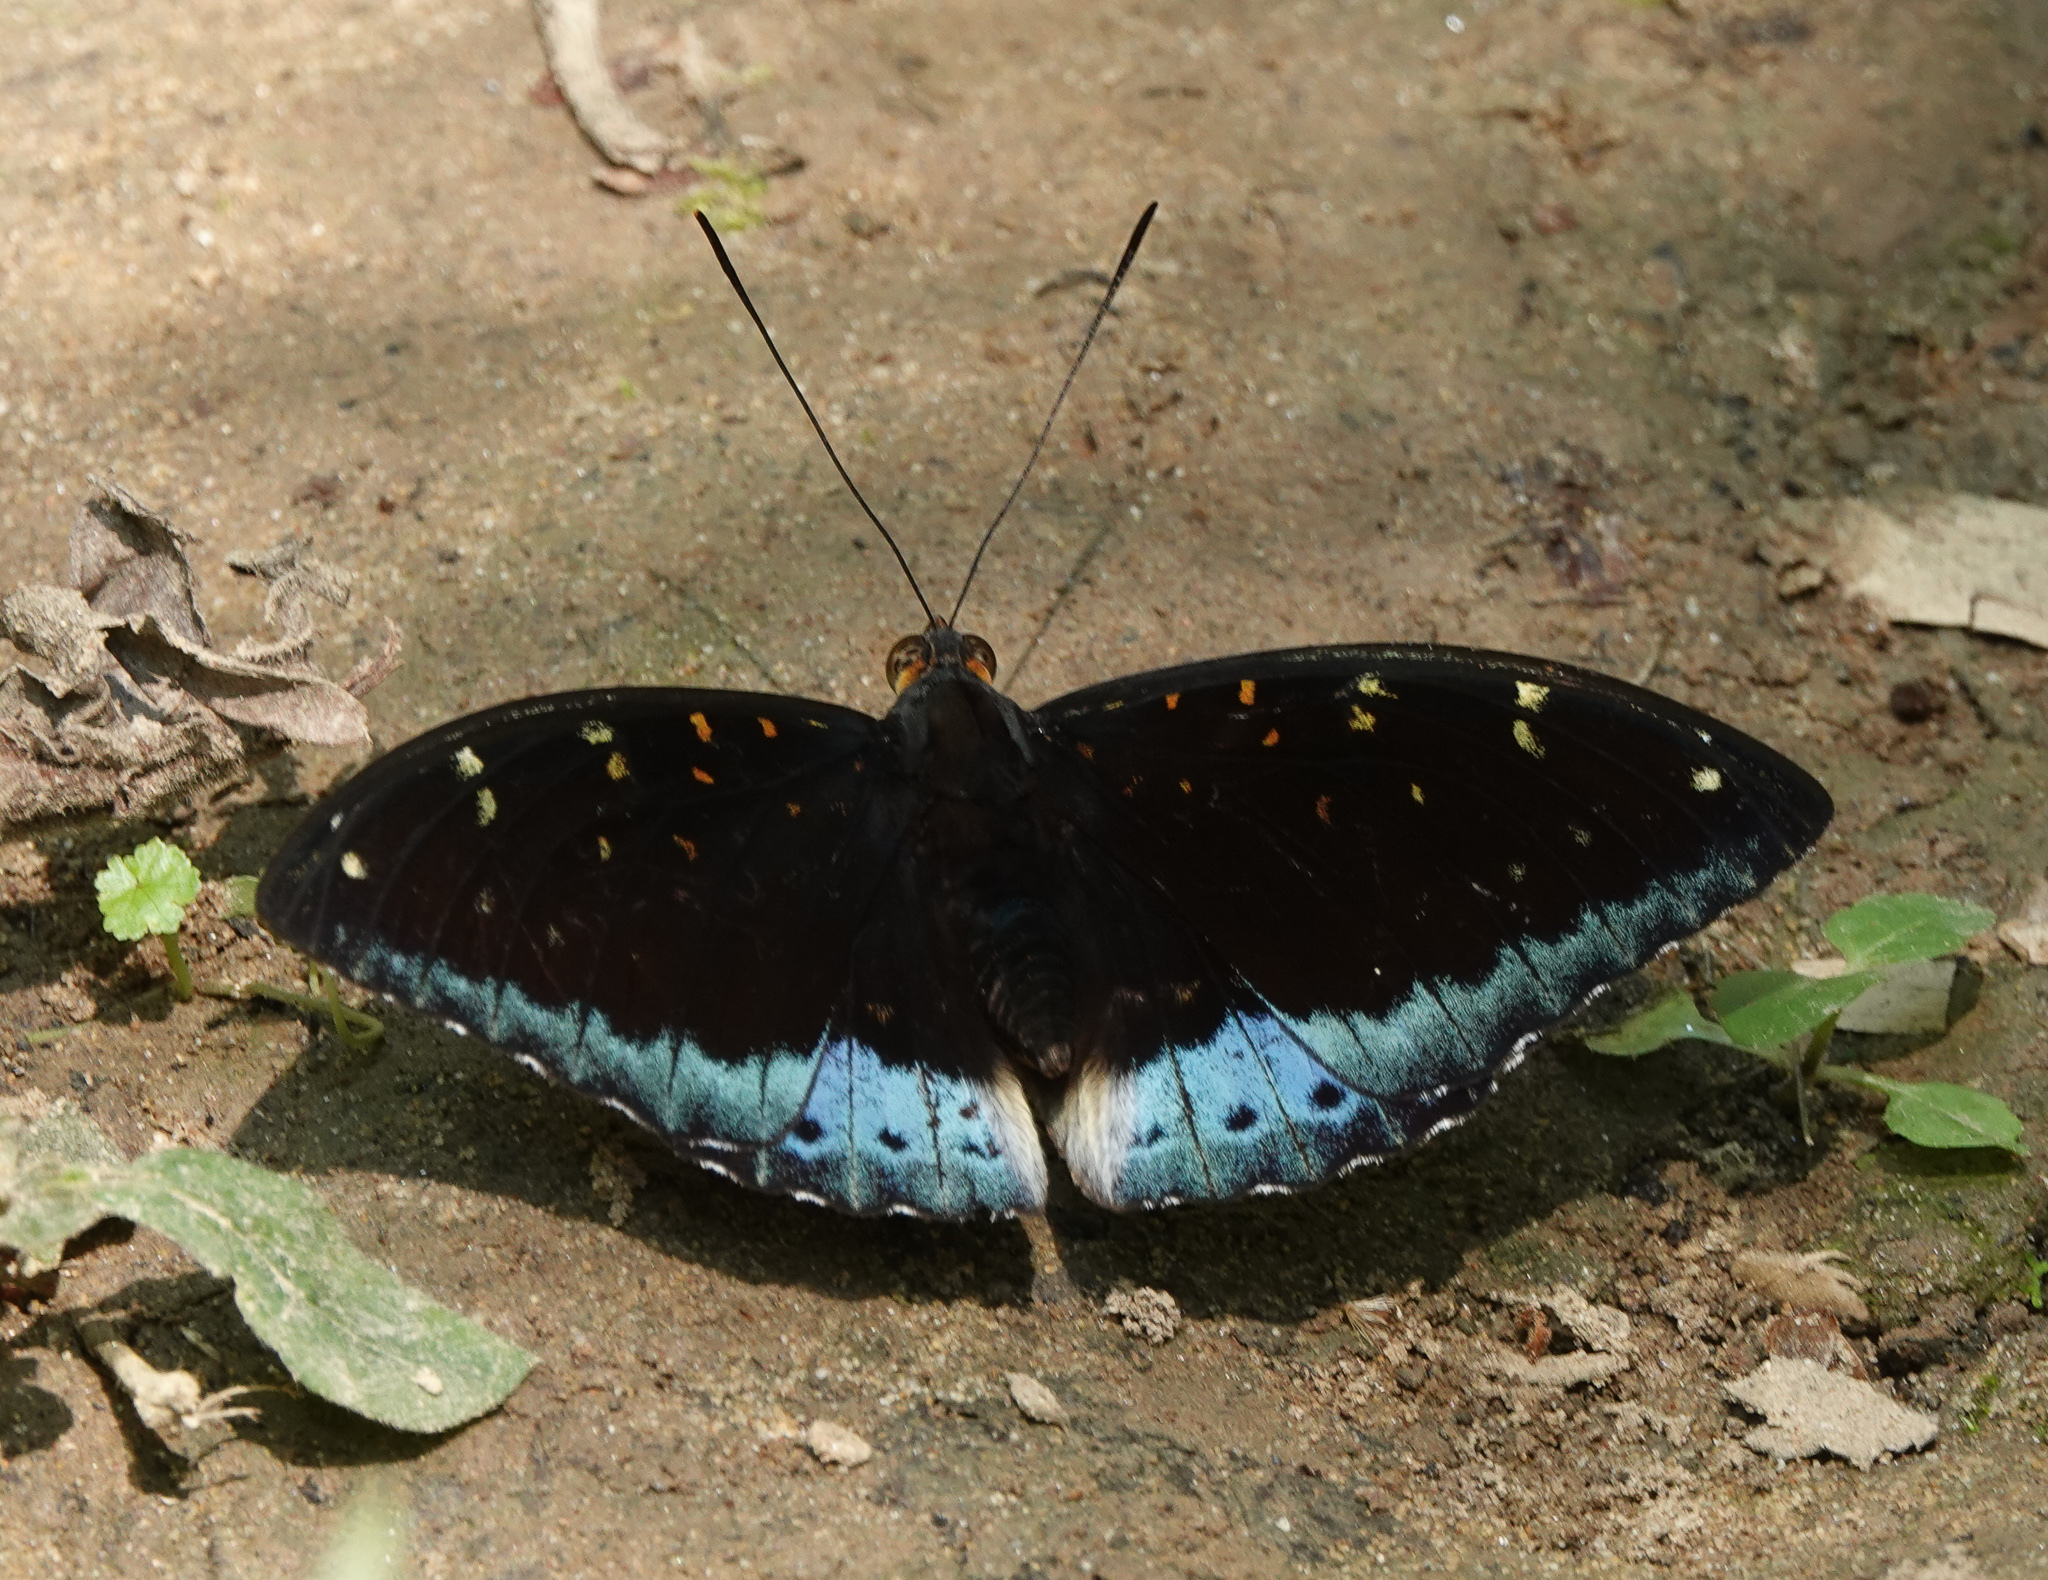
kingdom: Animalia
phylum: Arthropoda
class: Insecta
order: Lepidoptera
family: Nymphalidae
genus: Lexias
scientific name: Lexias dirtea
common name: Black-tipped archduke
